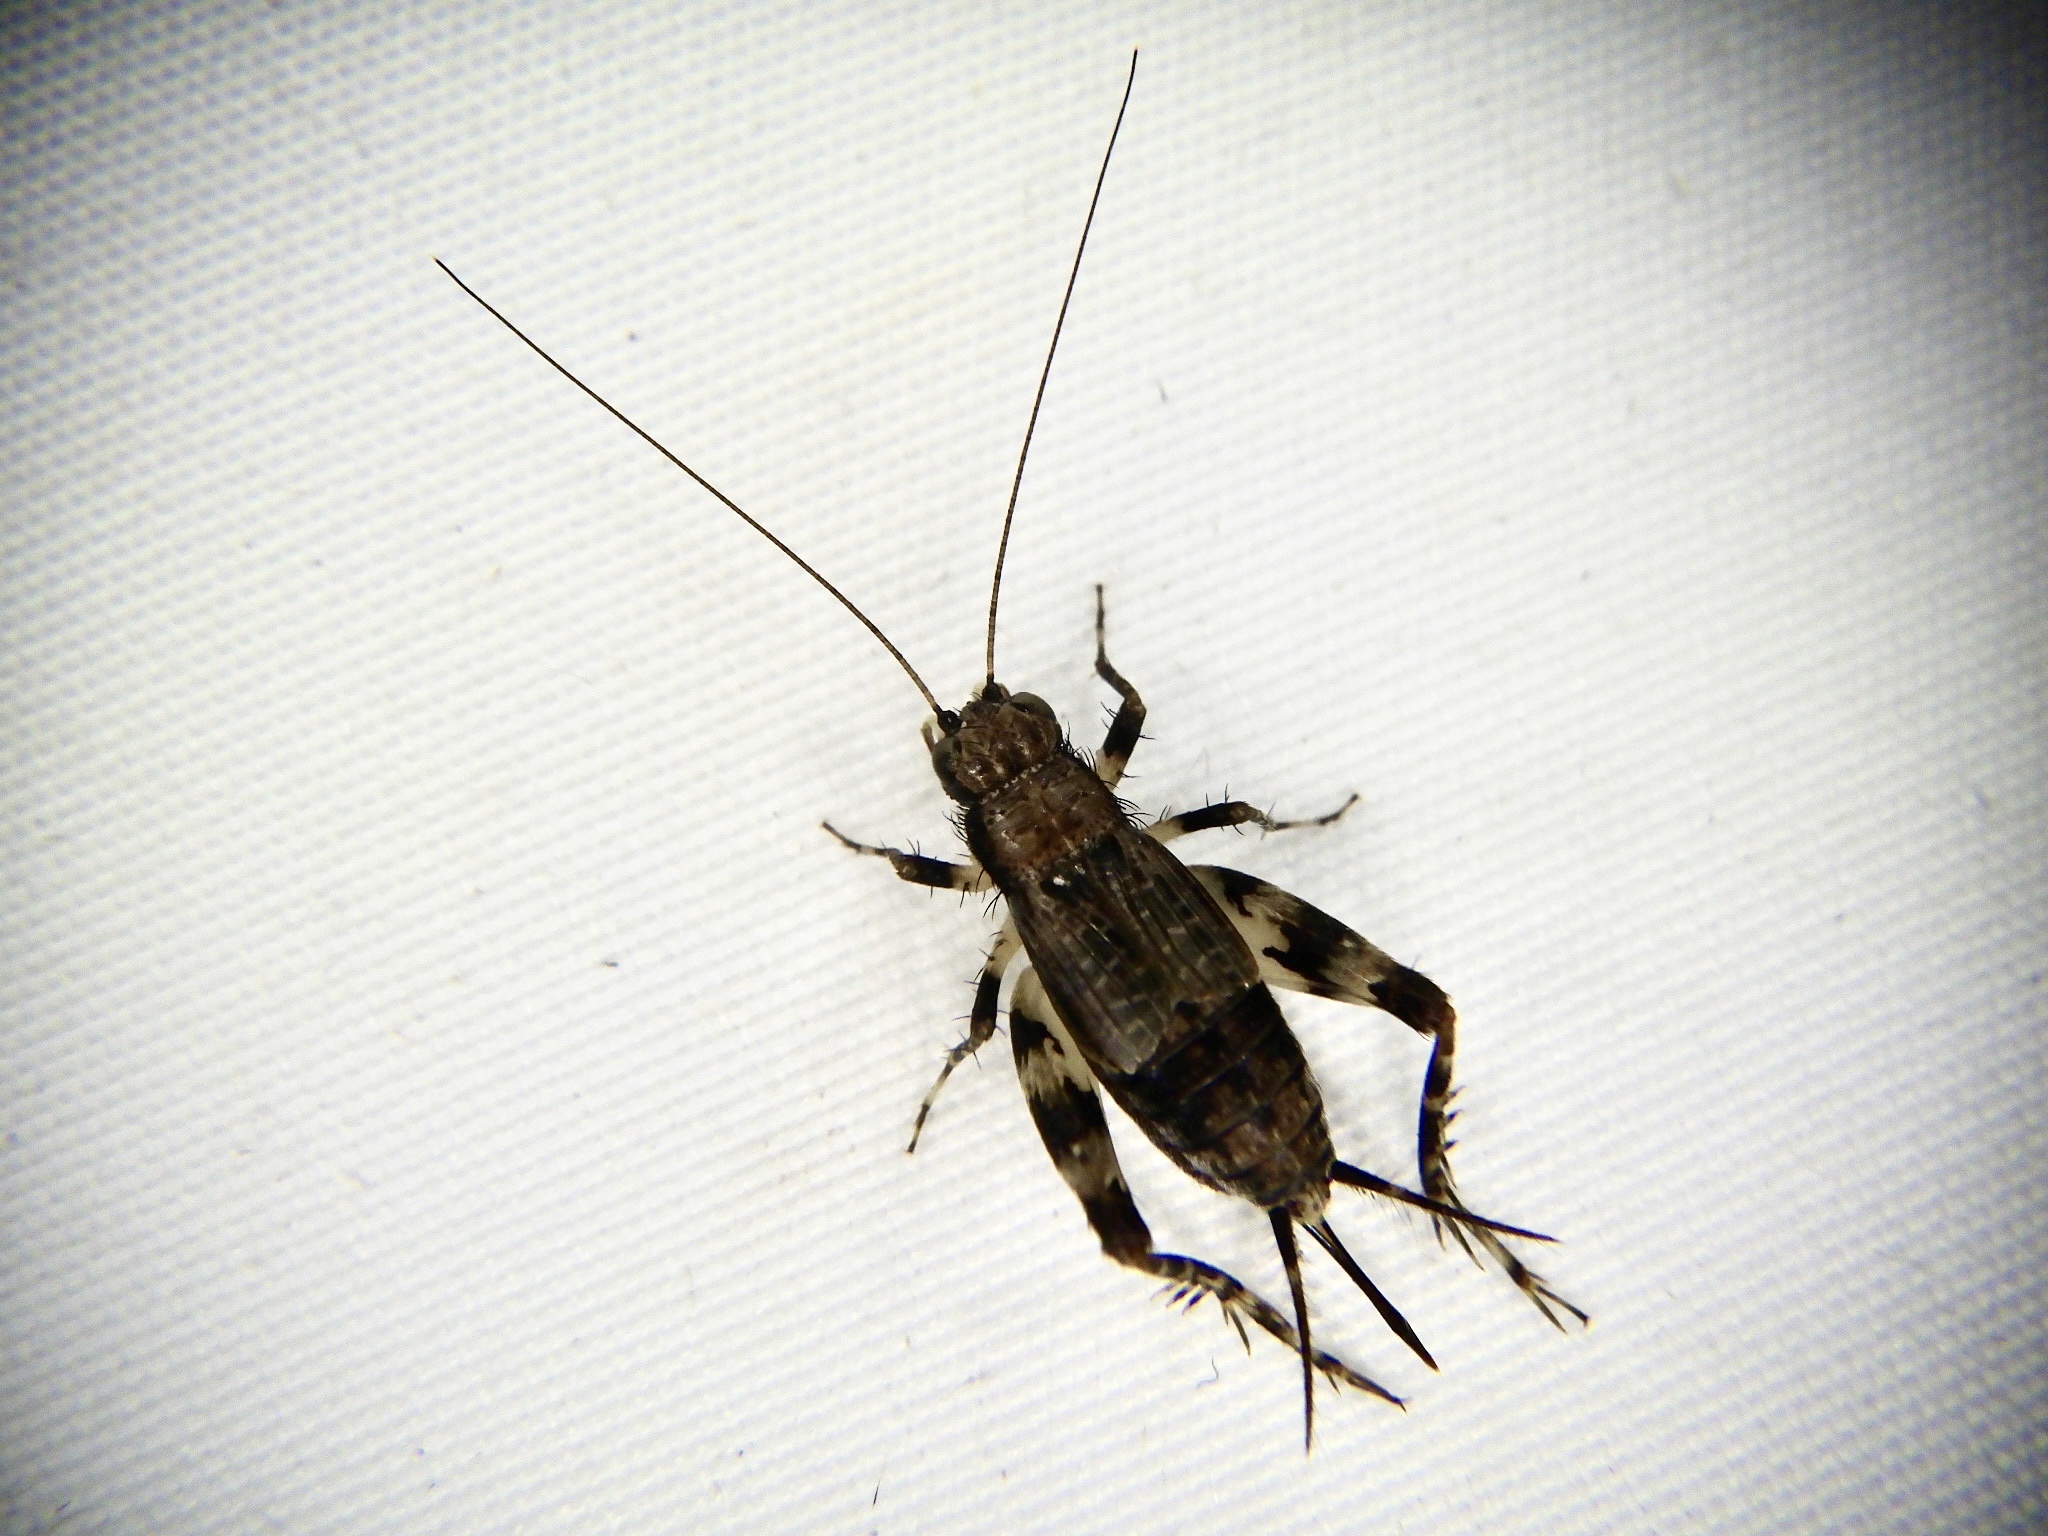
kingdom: Animalia
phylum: Arthropoda
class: Insecta
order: Orthoptera
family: Trigonidiidae
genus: Dianemobius
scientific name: Dianemobius fascipes
